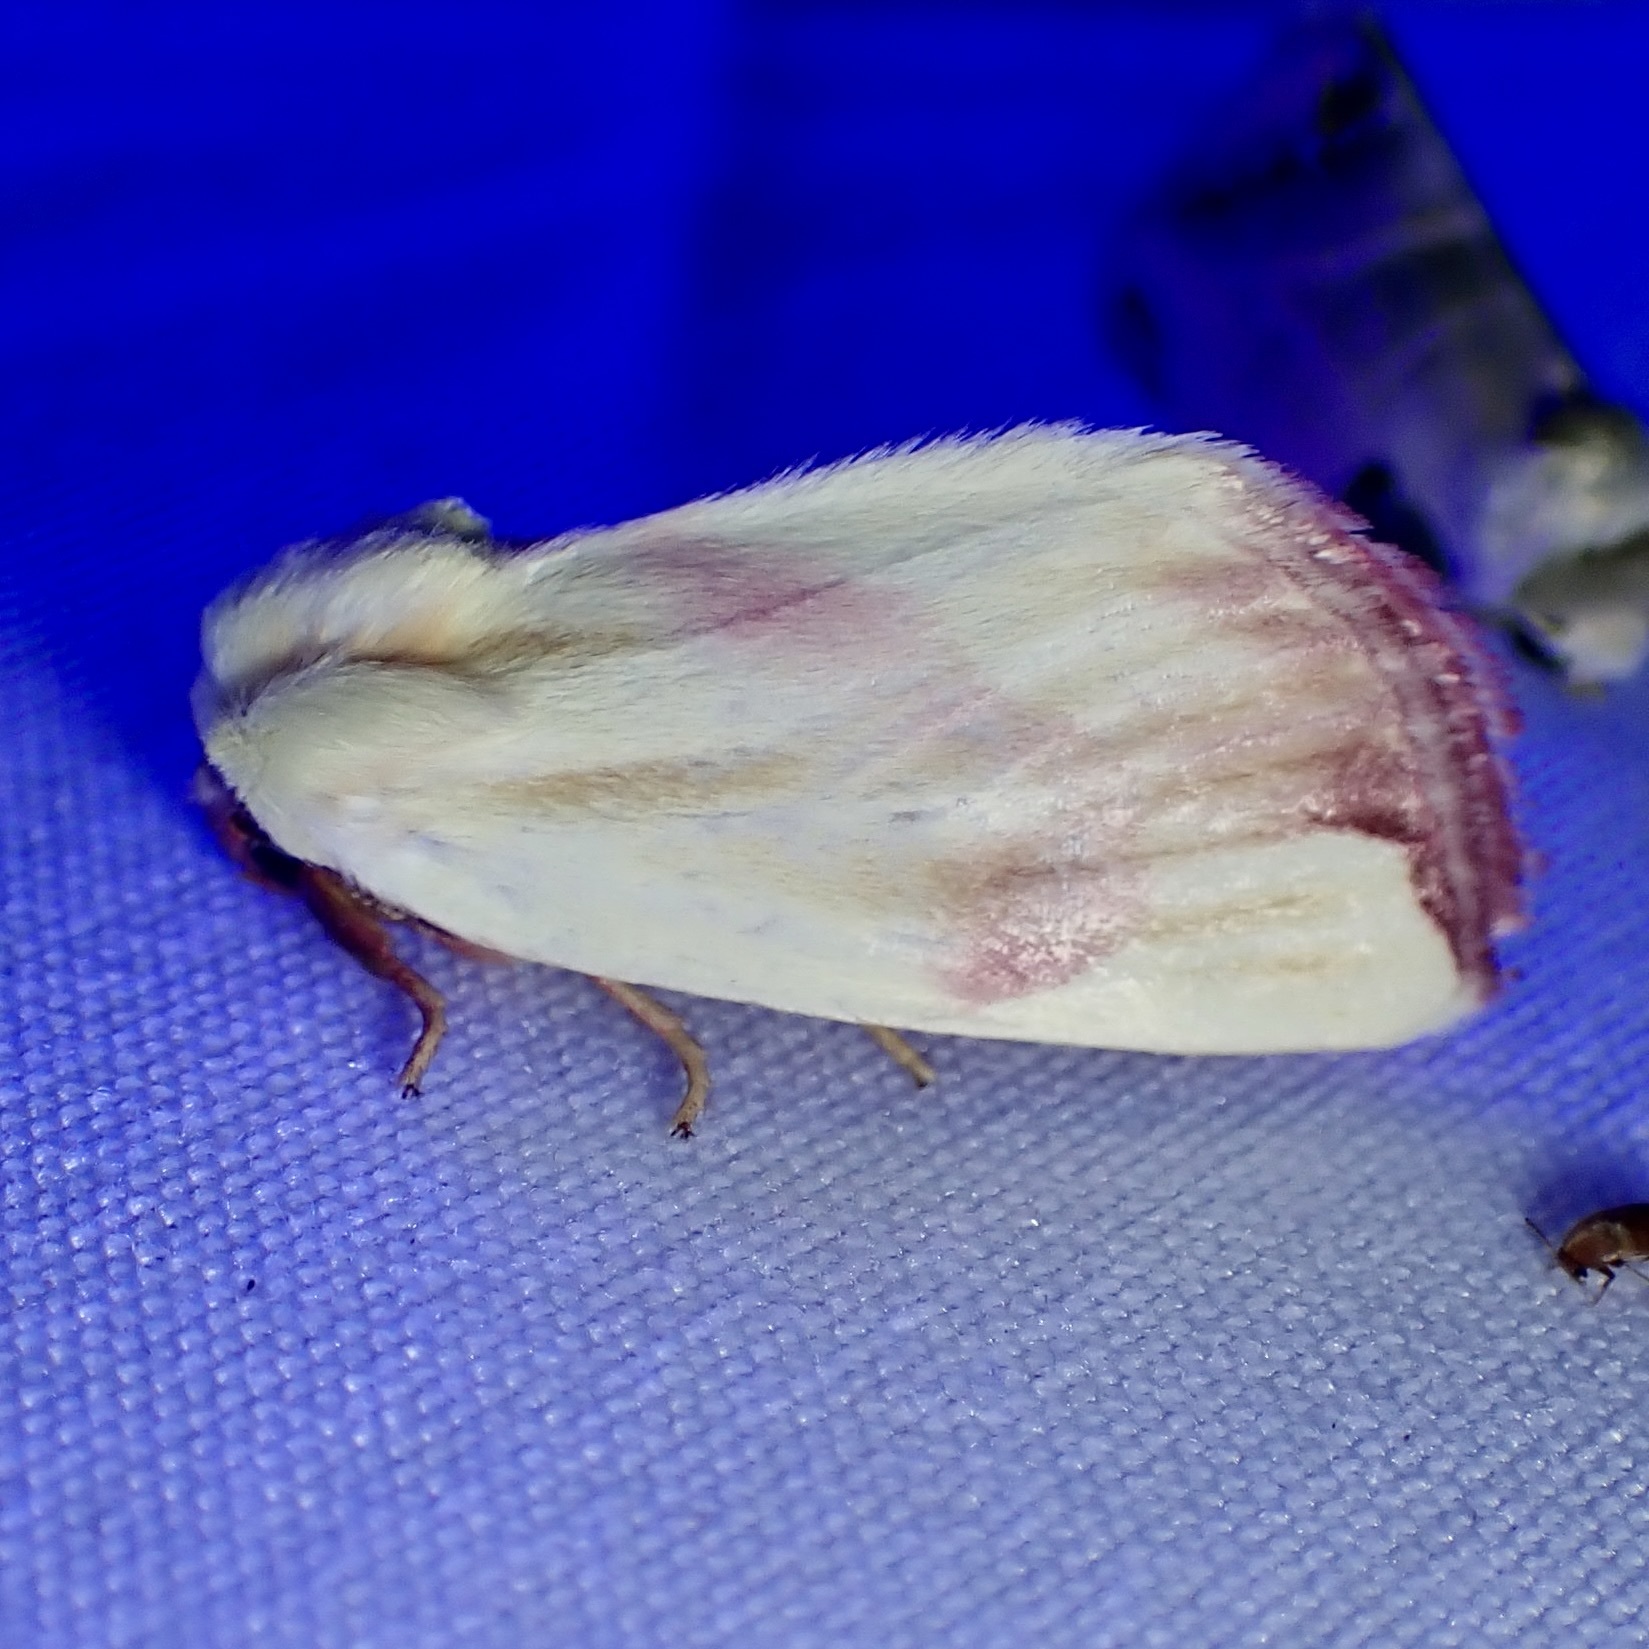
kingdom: Animalia
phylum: Arthropoda
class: Insecta
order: Lepidoptera
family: Noctuidae
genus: Thurberiphaga
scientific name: Thurberiphaga diffusa
